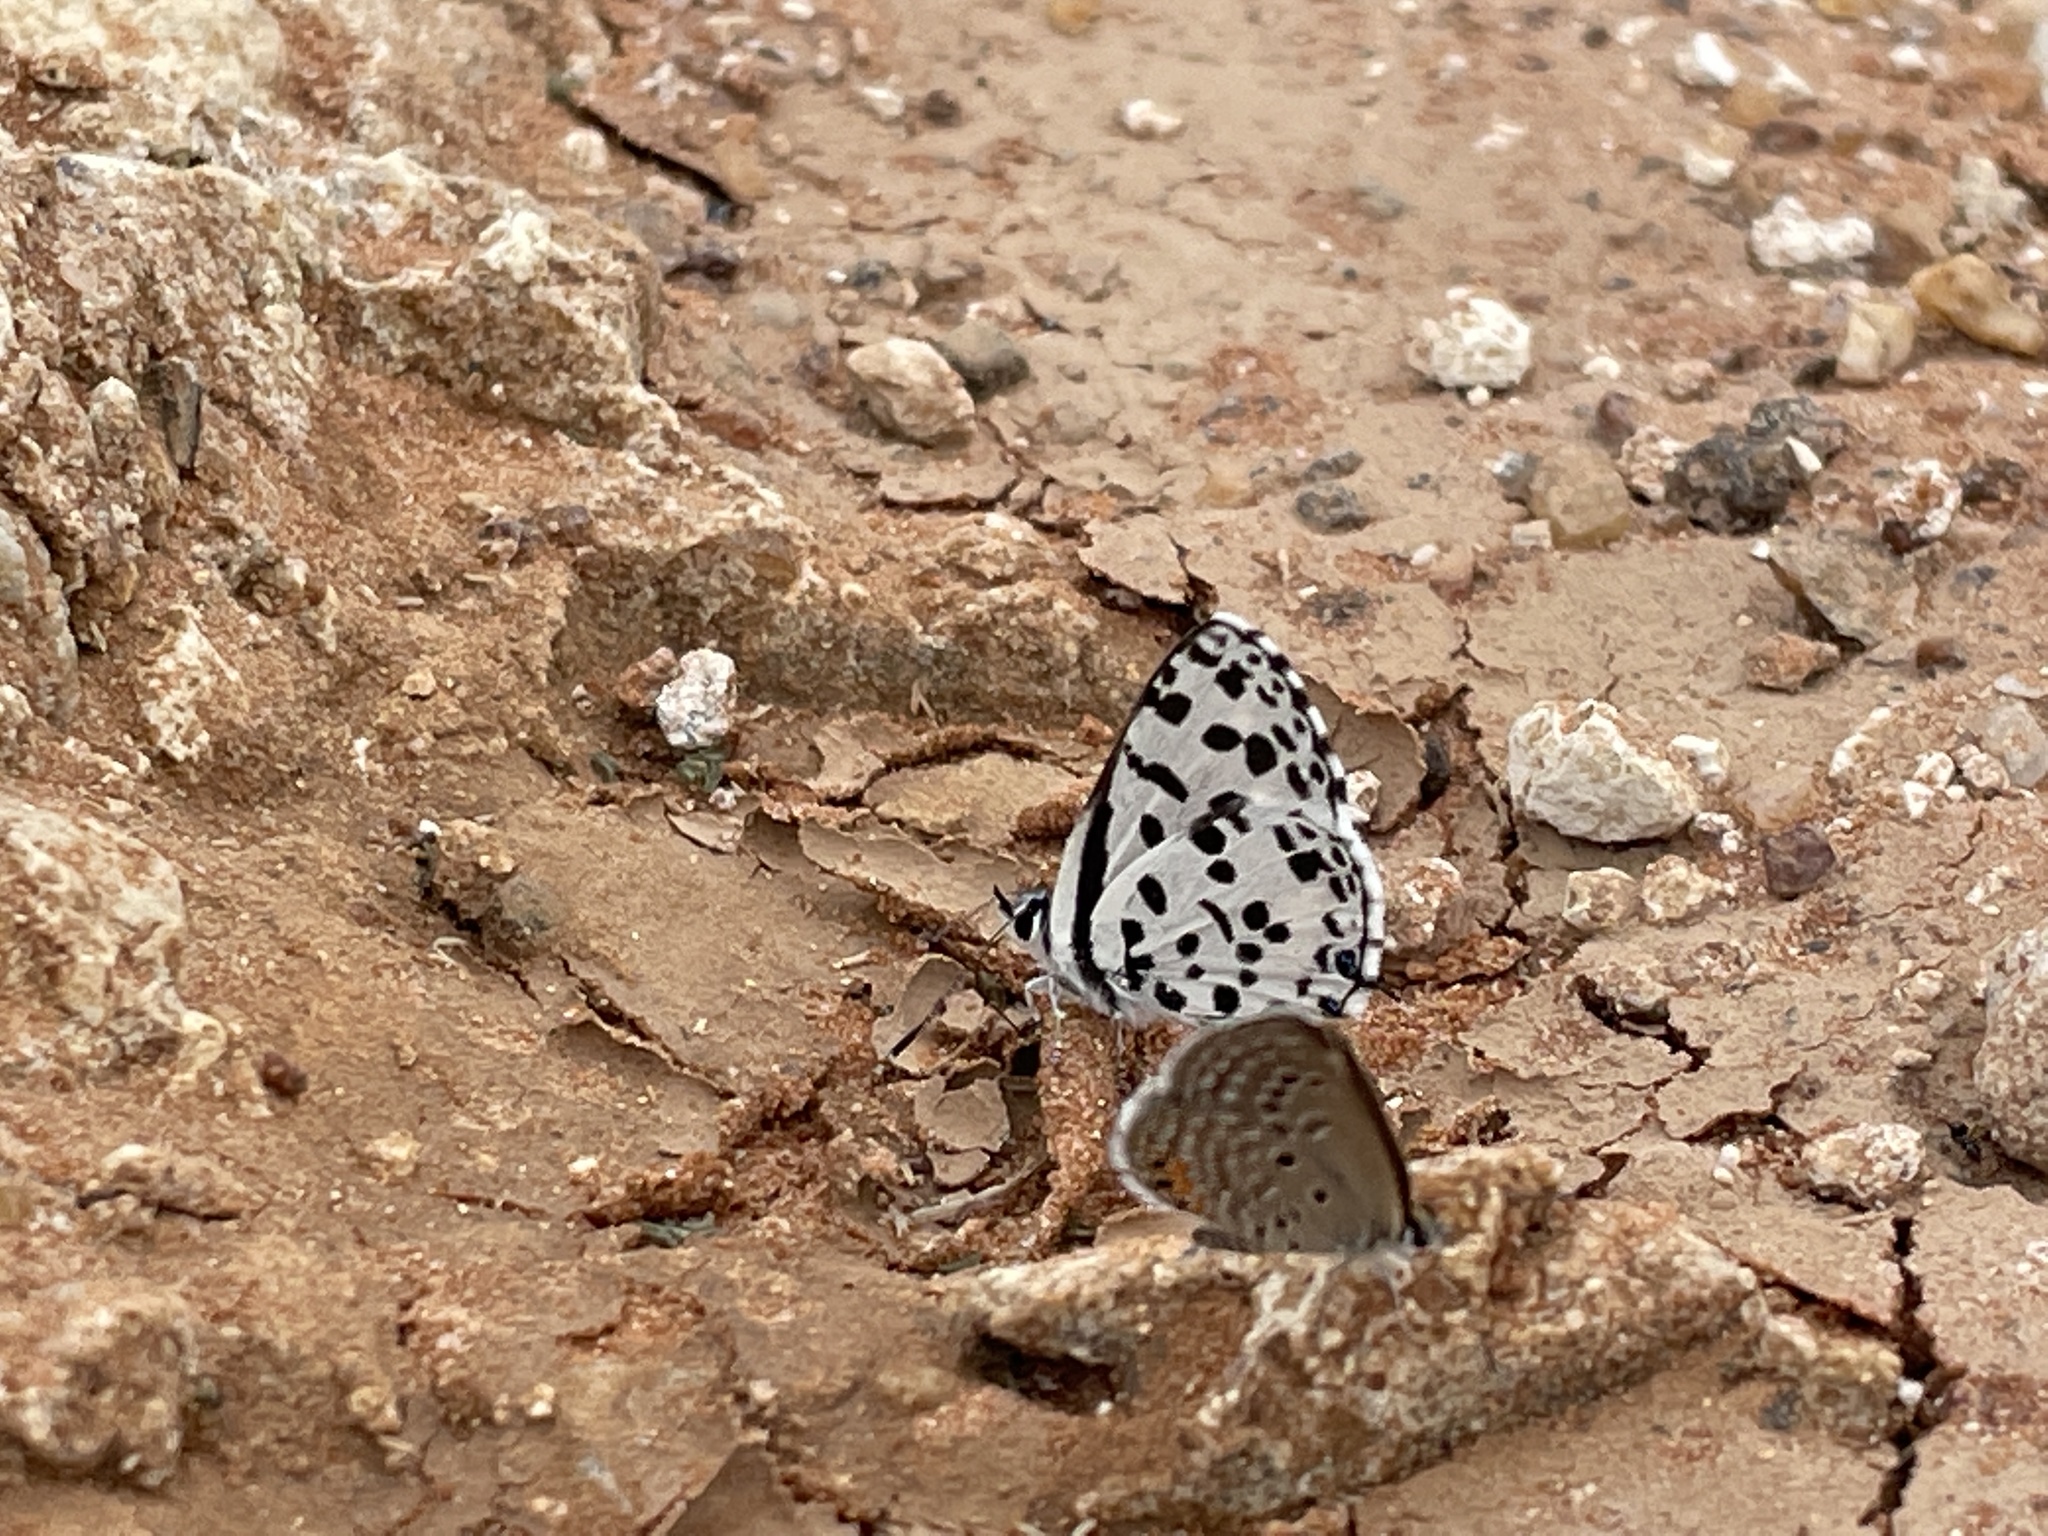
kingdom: Animalia
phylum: Arthropoda
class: Insecta
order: Lepidoptera
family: Lycaenidae
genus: Zintha
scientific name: Zintha hintza
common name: Hintza pierrot
